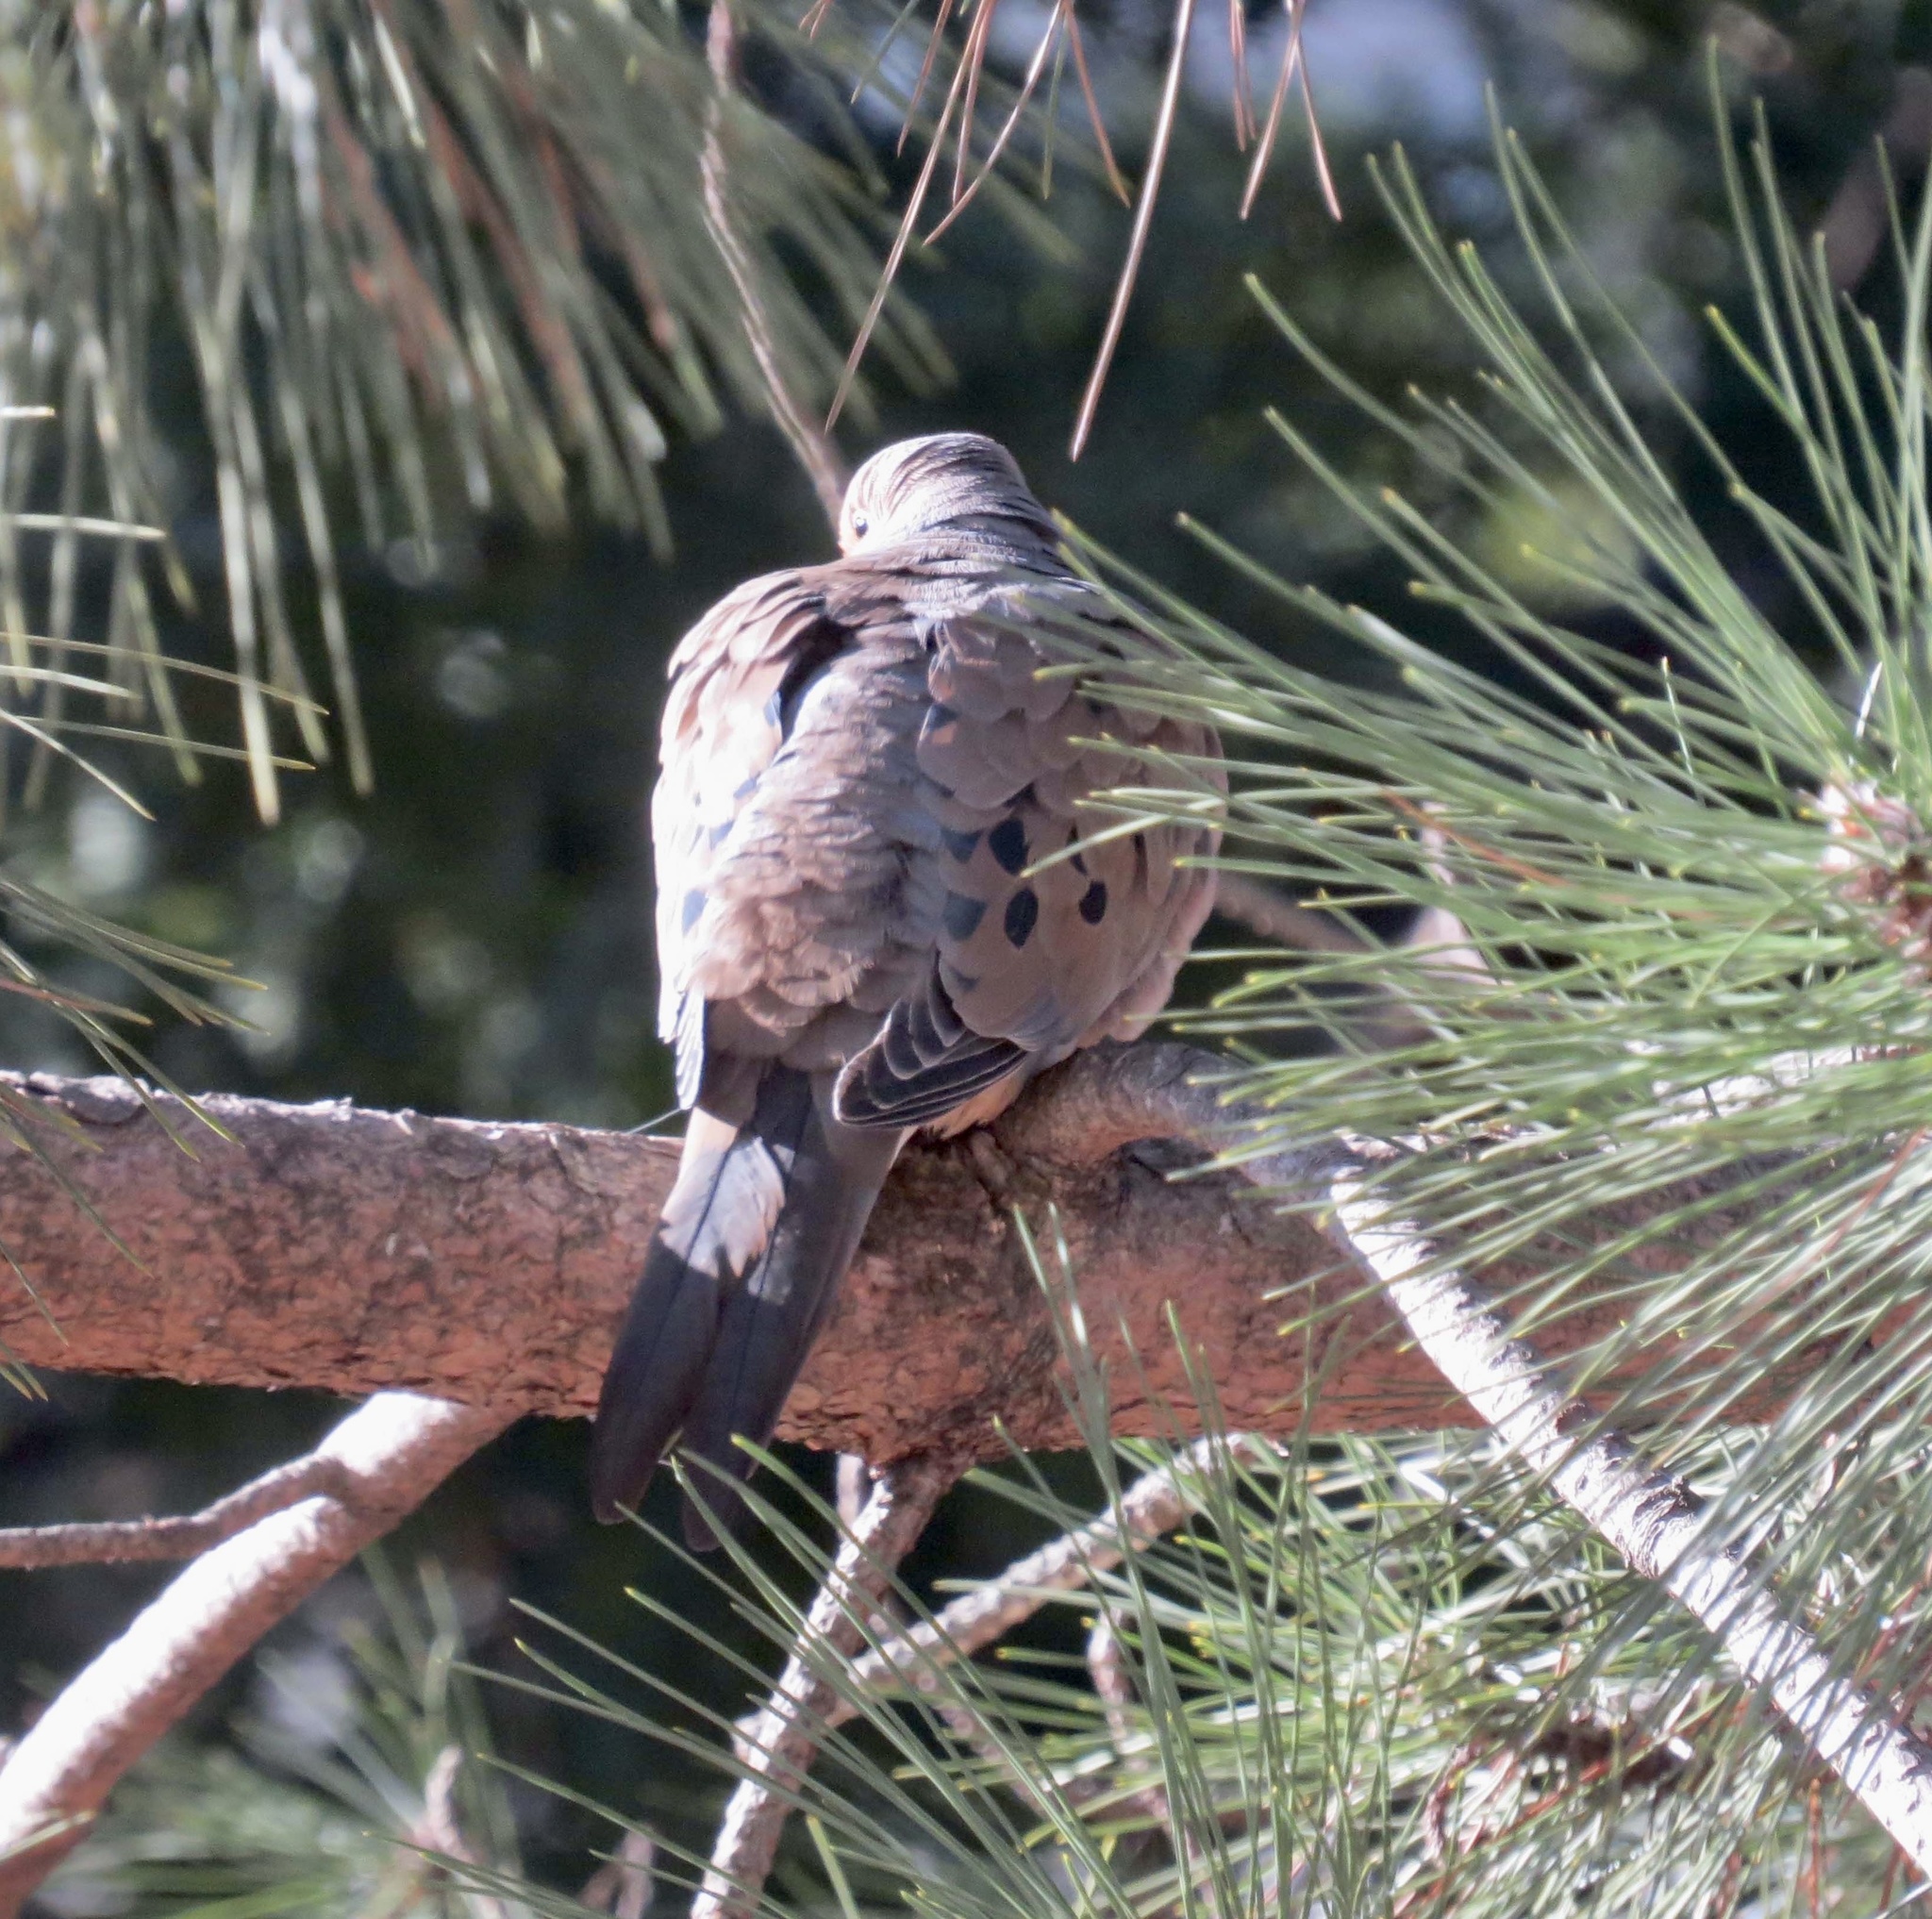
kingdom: Animalia
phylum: Chordata
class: Aves
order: Columbiformes
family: Columbidae
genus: Zenaida
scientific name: Zenaida macroura
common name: Mourning dove
